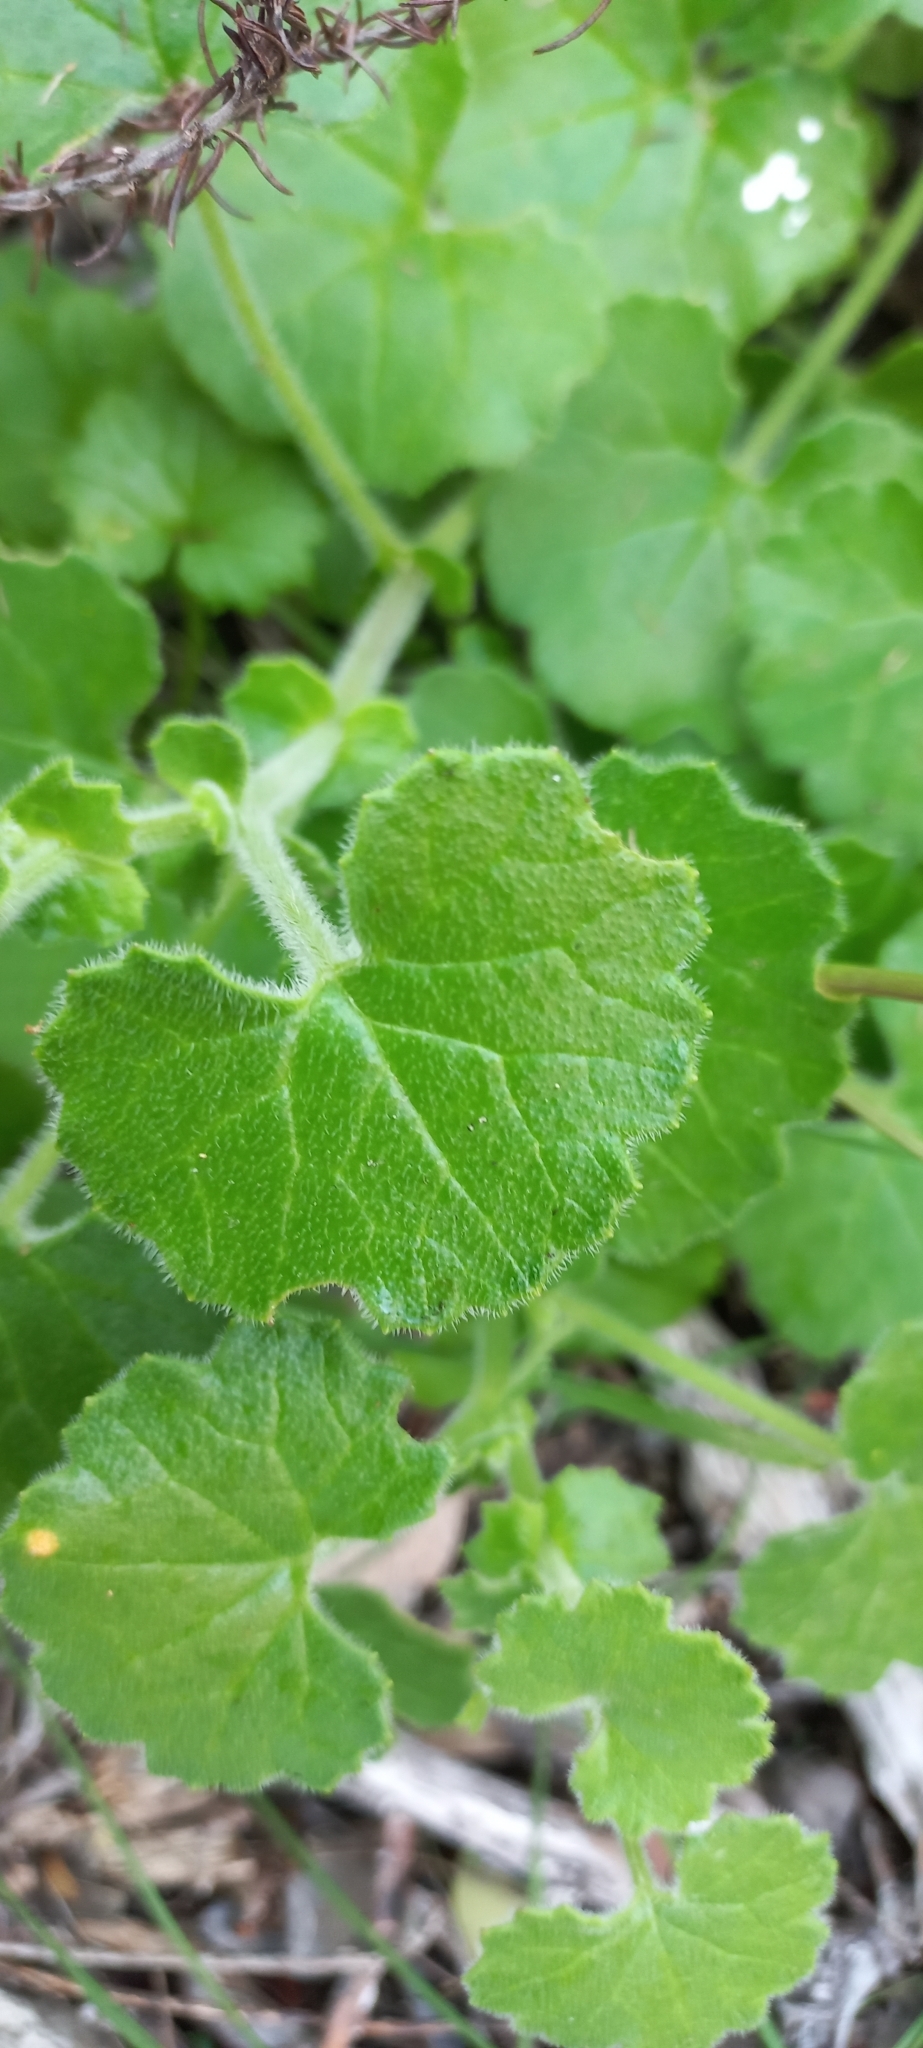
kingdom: Plantae
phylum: Tracheophyta
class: Magnoliopsida
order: Asterales
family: Asteraceae
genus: Cineraria
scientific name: Cineraria geifolia
